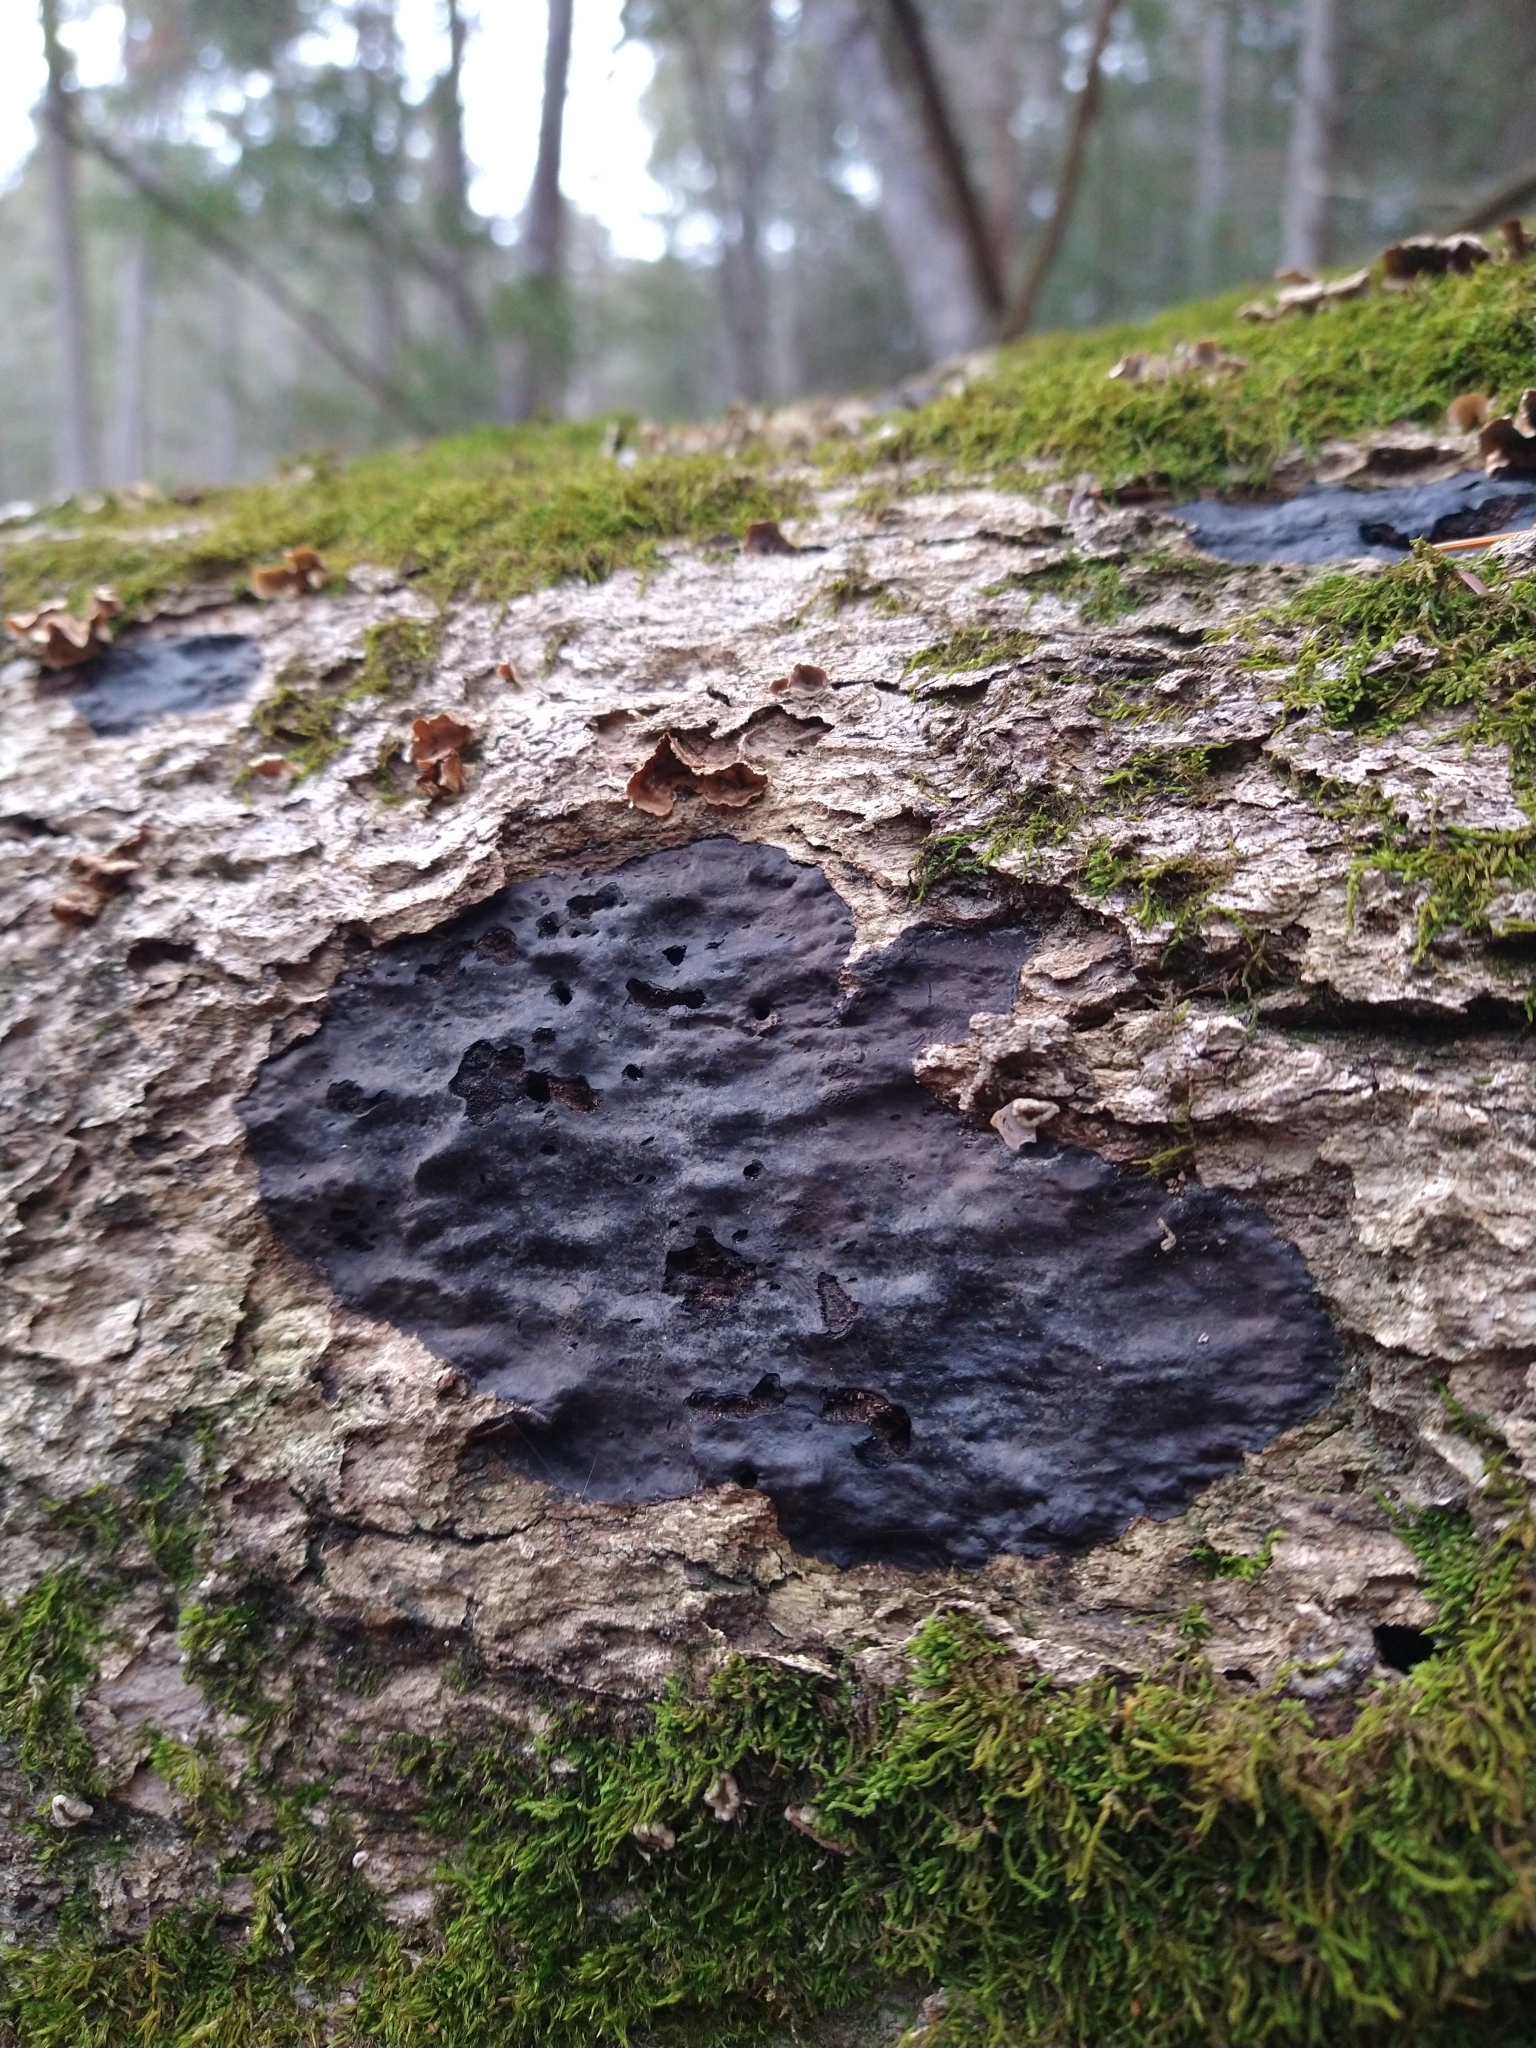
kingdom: Fungi
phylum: Ascomycota
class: Sordariomycetes
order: Xylariales
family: Graphostromataceae
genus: Camillea
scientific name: Camillea punctulata
